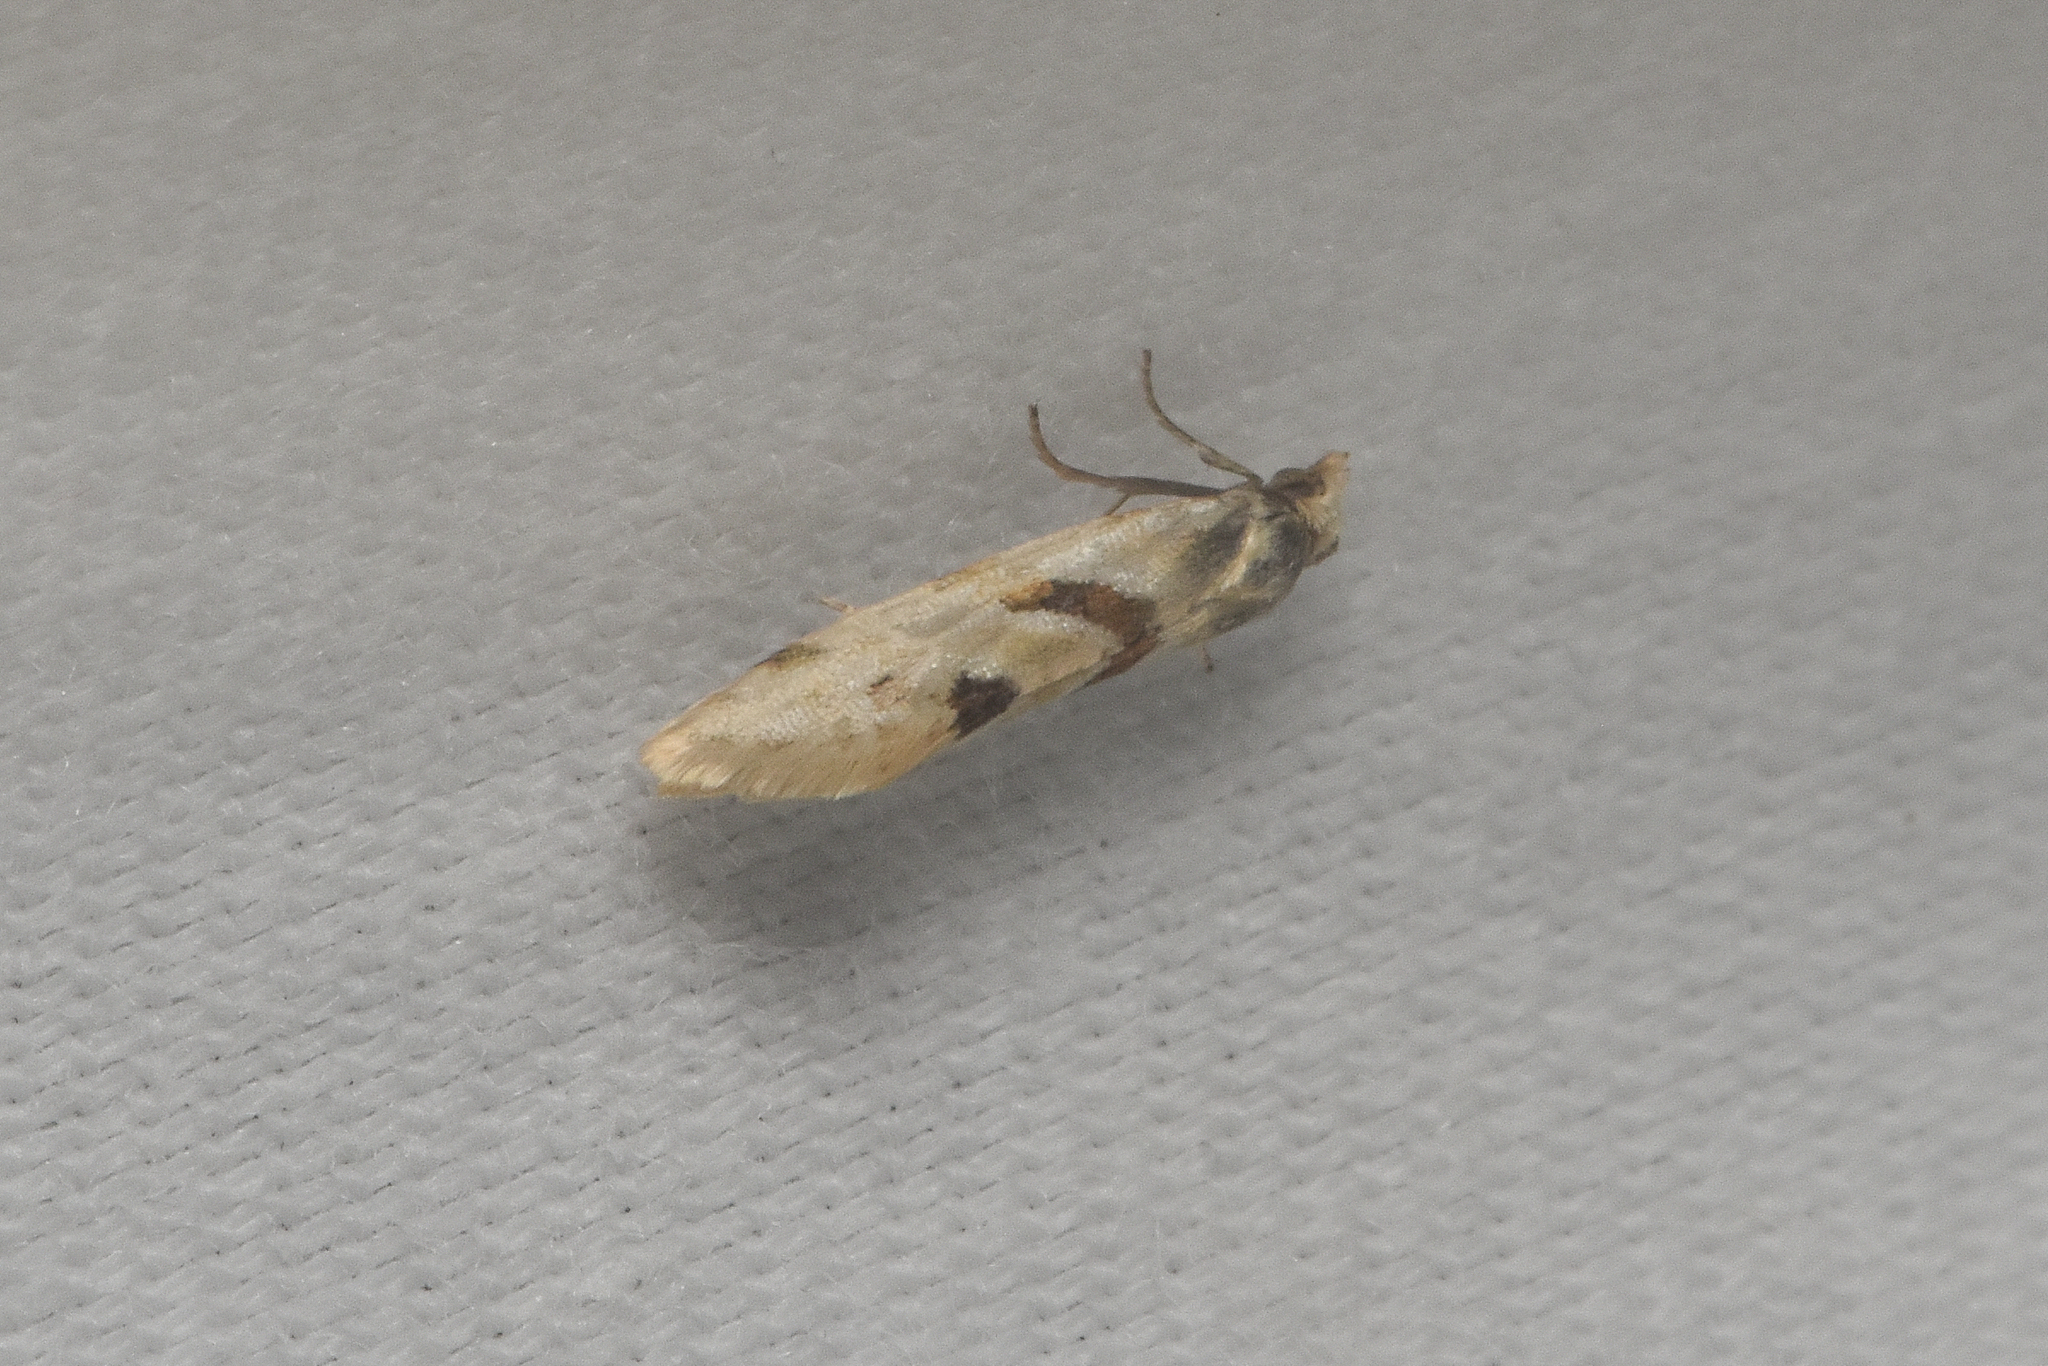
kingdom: Animalia
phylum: Arthropoda
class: Insecta
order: Lepidoptera
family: Tortricidae
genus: Aethes
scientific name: Aethes smeathmanniana
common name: Yarrow conch
